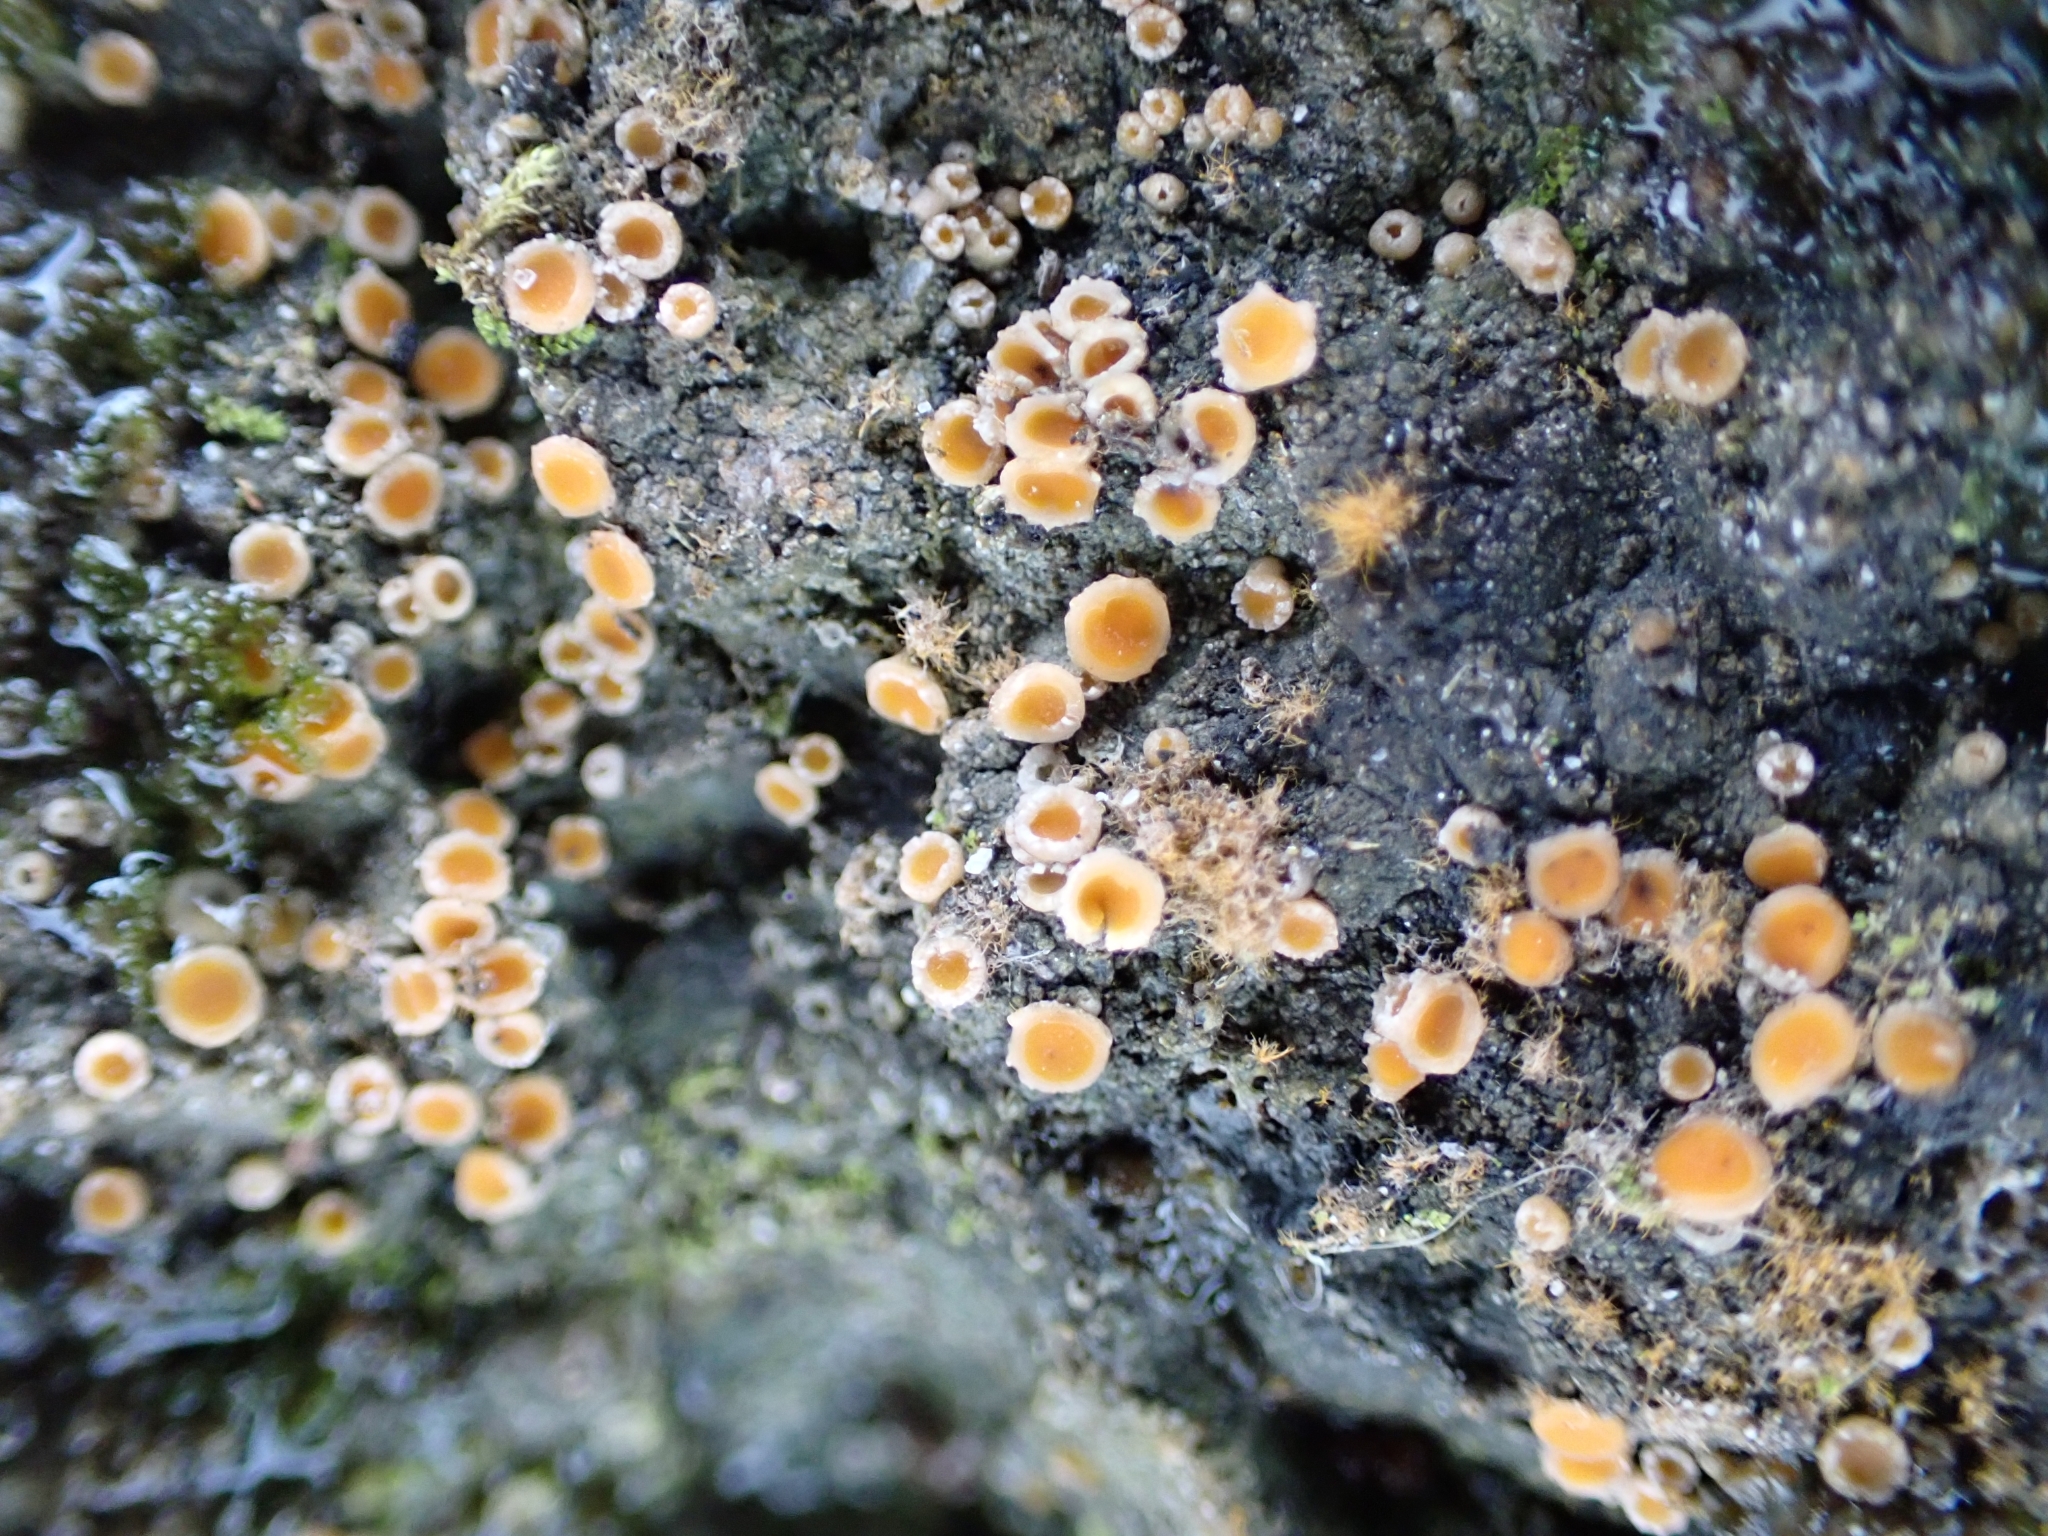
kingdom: Fungi
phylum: Ascomycota
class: Lecanoromycetes
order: Gyalectales
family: Gyalectaceae
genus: Gyalecta
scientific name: Gyalecta jenensis
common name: Rock dimple lichen
